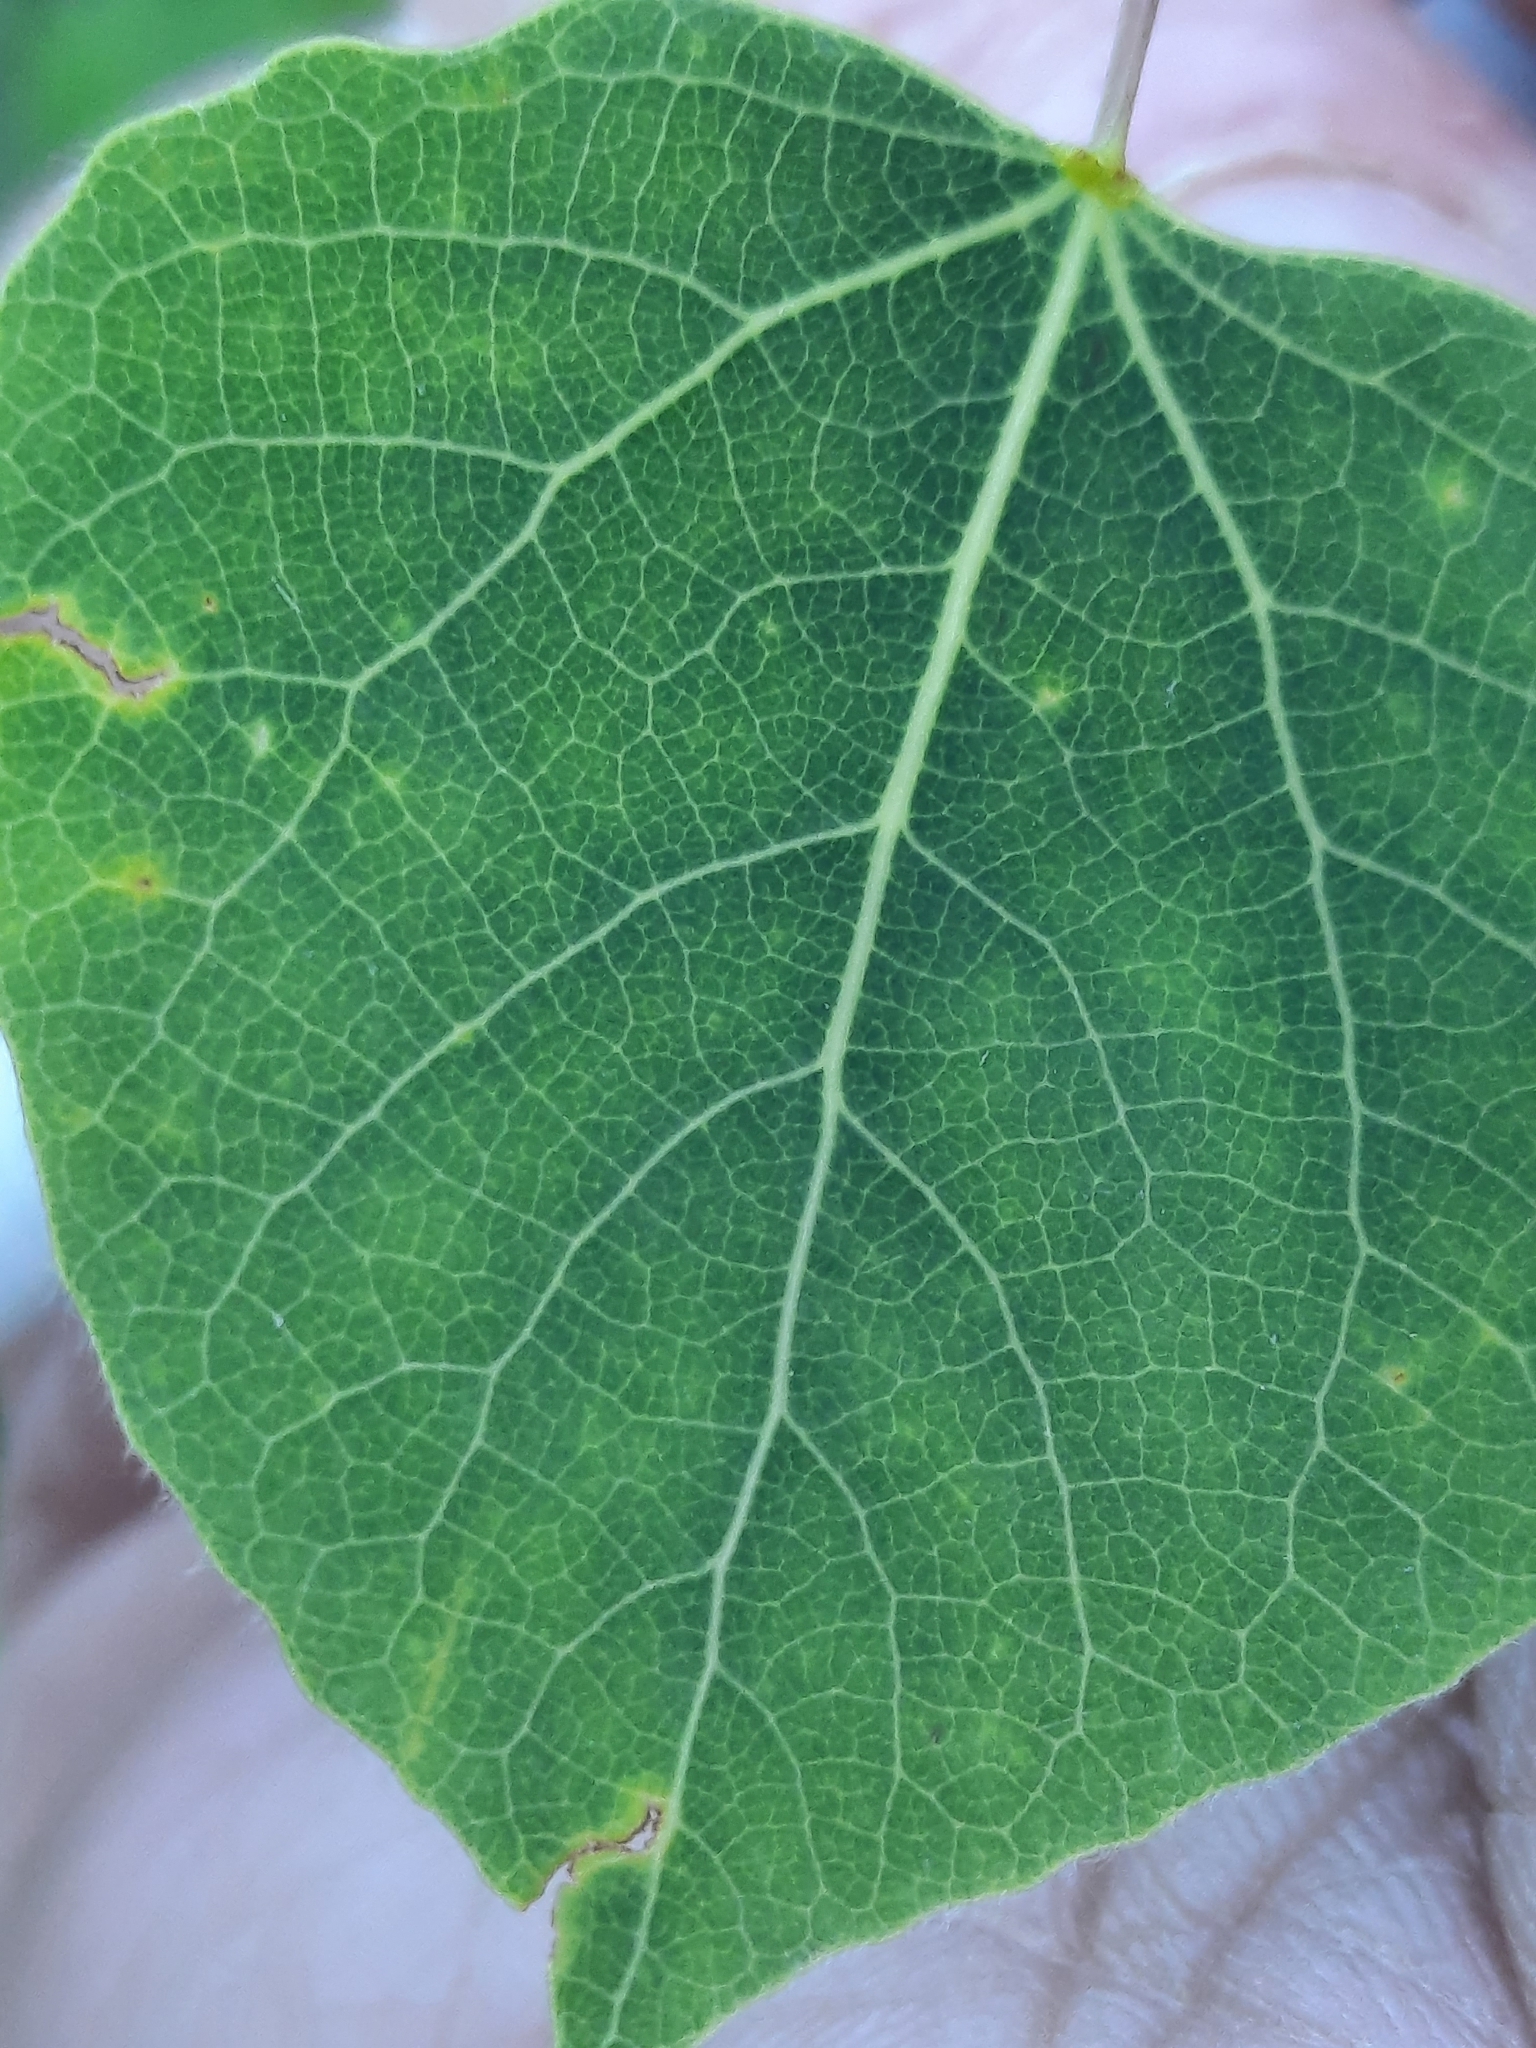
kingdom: Plantae
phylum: Tracheophyta
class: Magnoliopsida
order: Malpighiales
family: Salicaceae
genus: Populus
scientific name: Populus tremuloides
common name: Quaking aspen
